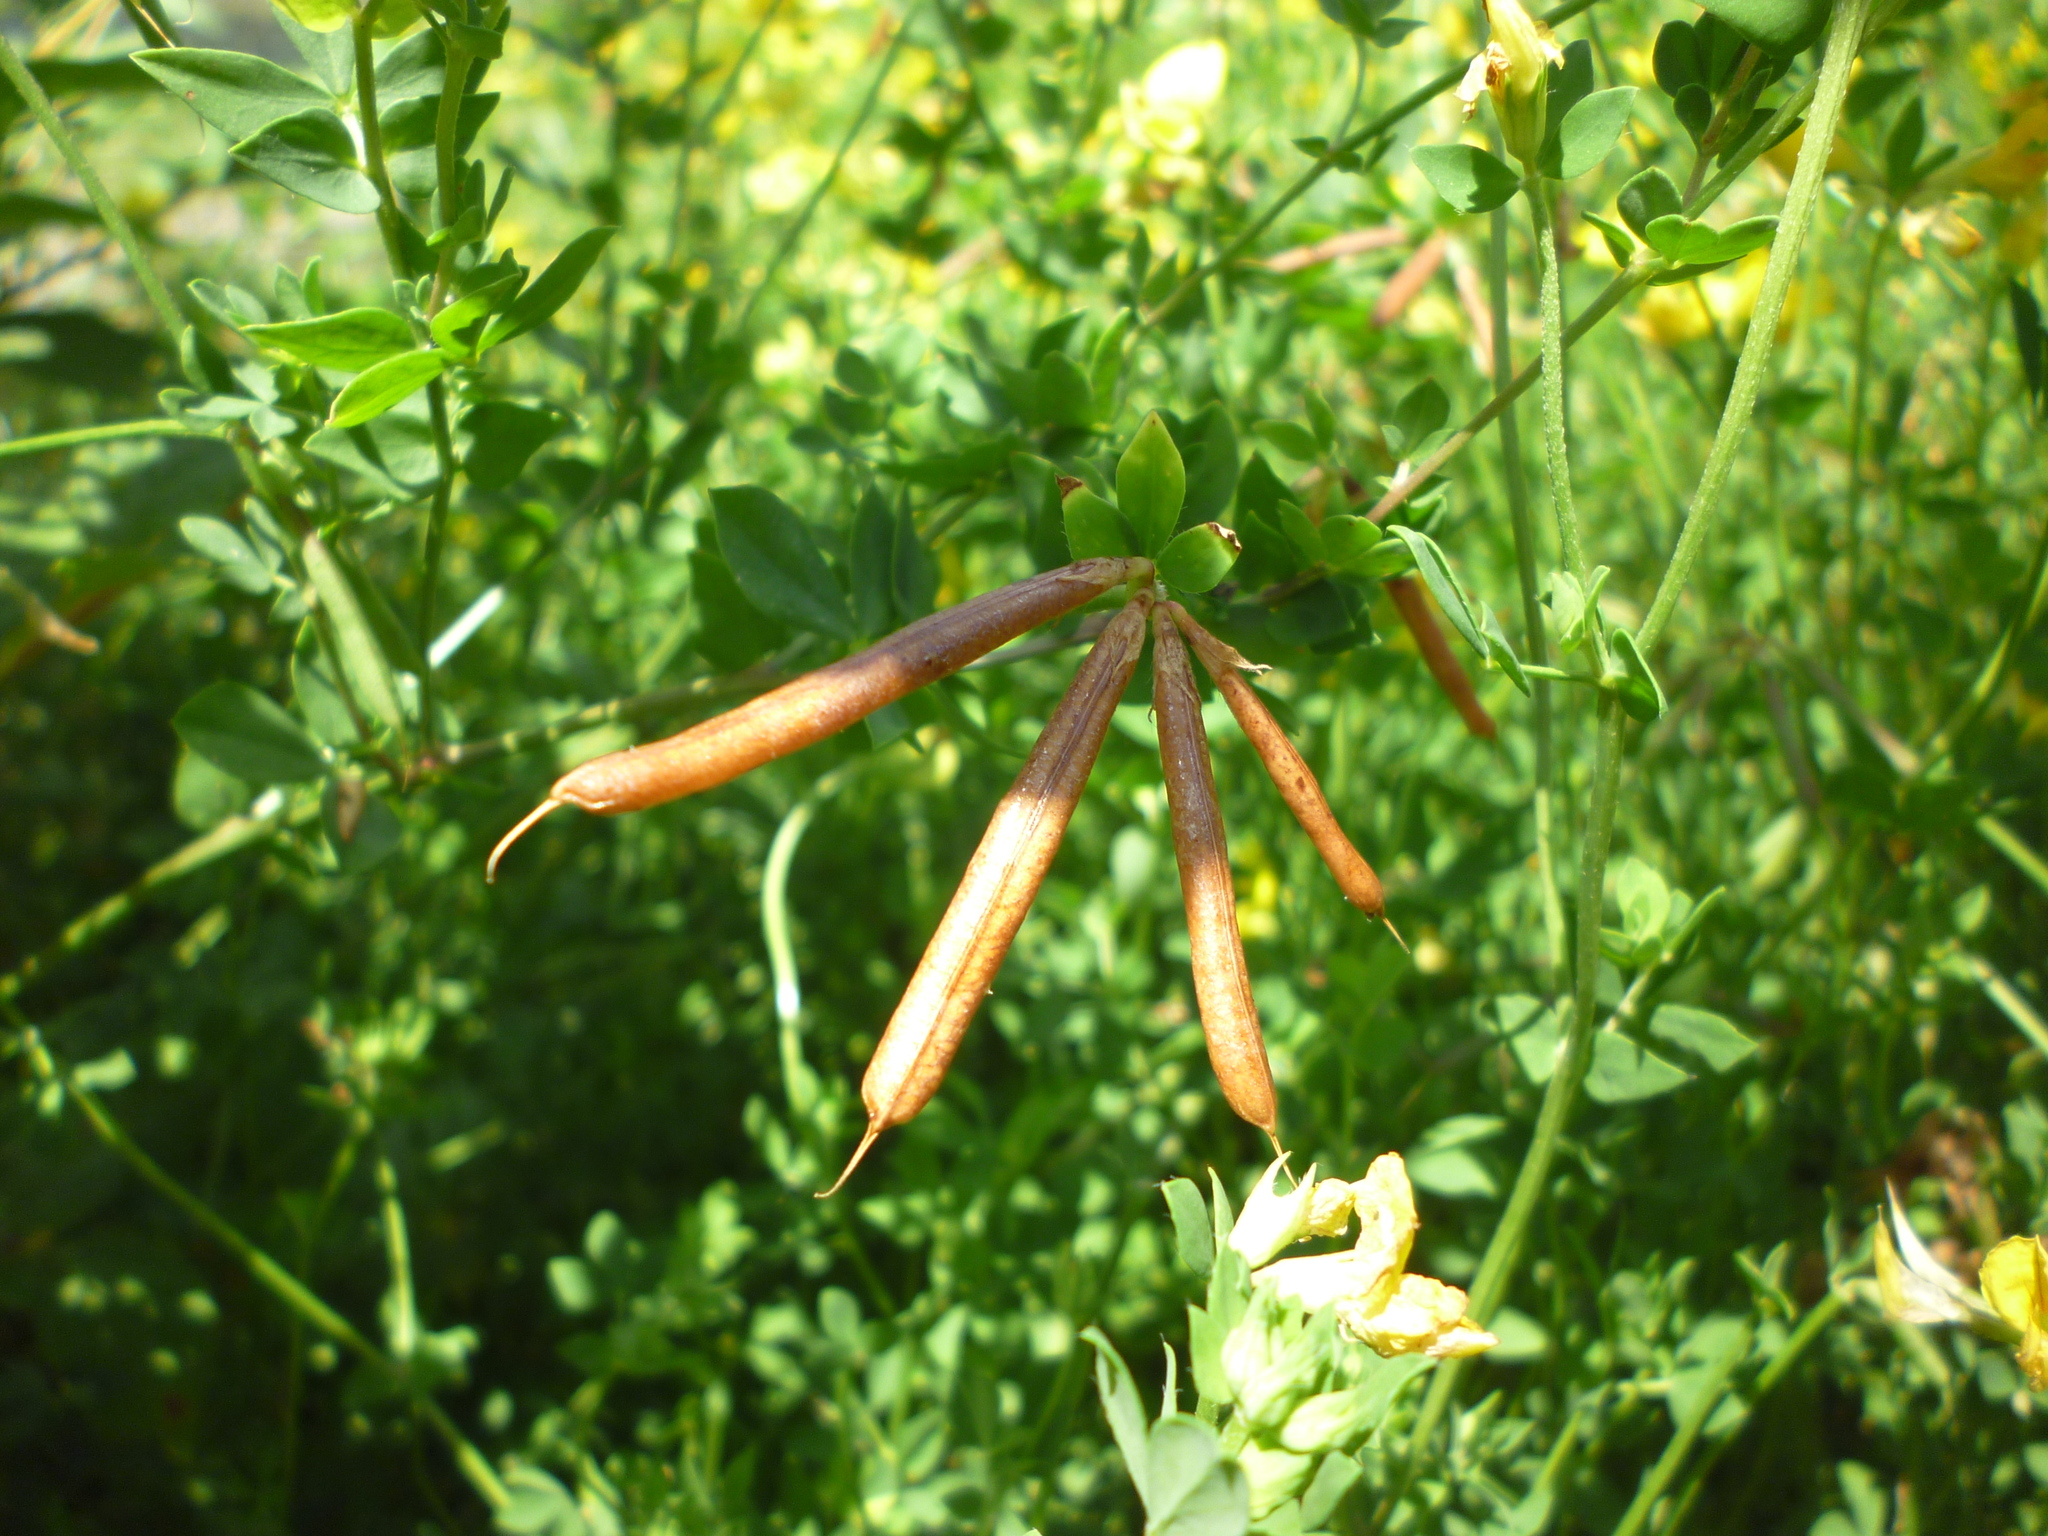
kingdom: Plantae
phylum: Tracheophyta
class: Magnoliopsida
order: Fabales
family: Fabaceae
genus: Lotus
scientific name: Lotus corniculatus
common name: Common bird's-foot-trefoil
